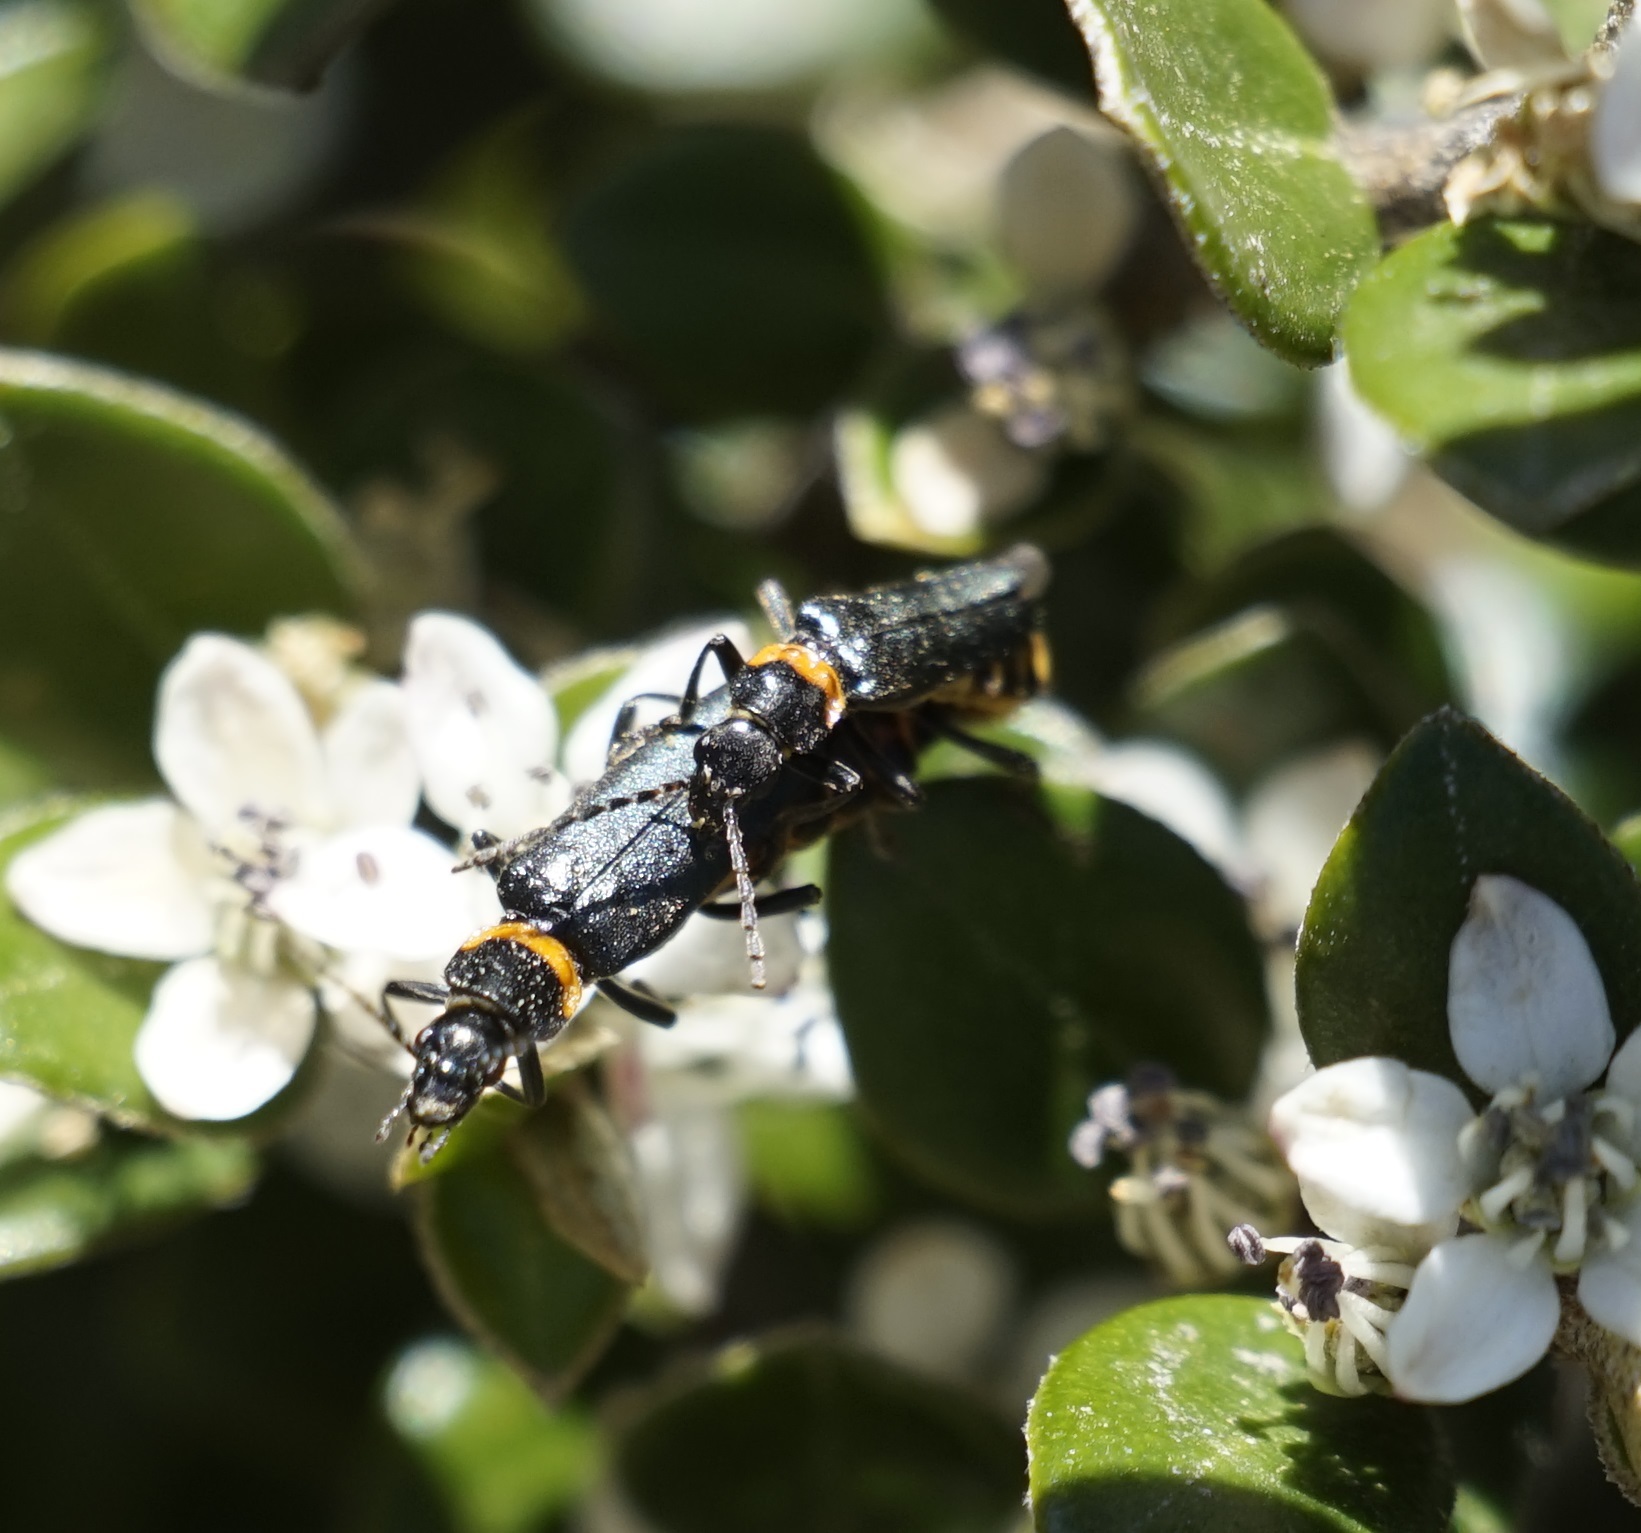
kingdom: Animalia
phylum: Arthropoda
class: Insecta
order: Coleoptera
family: Cantharidae
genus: Chauliognathus
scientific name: Chauliognathus
